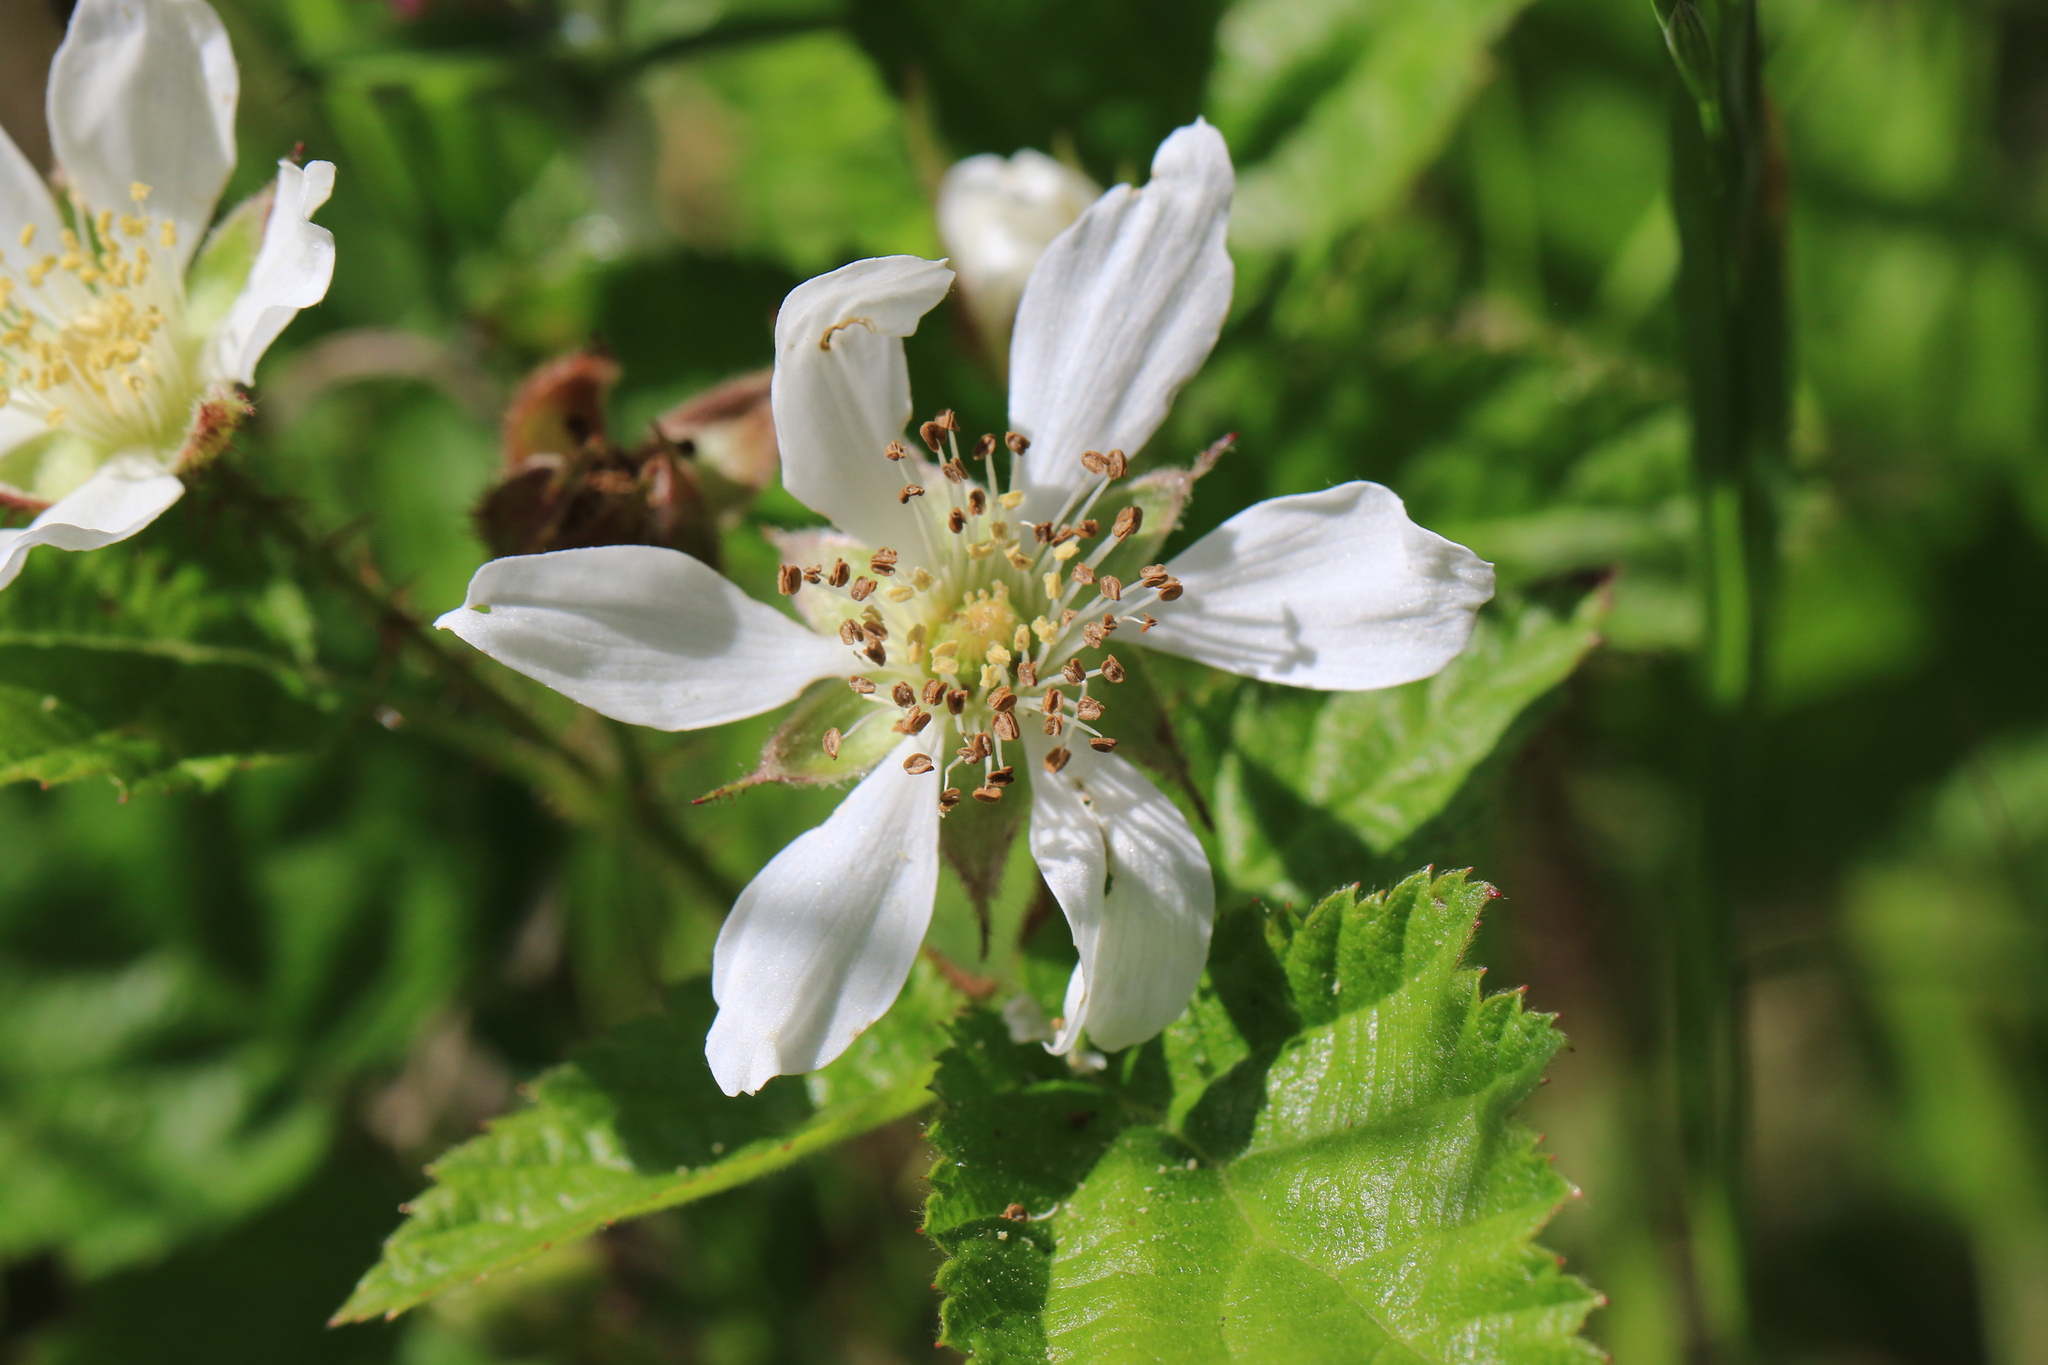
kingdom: Plantae
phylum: Tracheophyta
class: Magnoliopsida
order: Rosales
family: Rosaceae
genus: Rubus
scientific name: Rubus ursinus
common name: Pacific blackberry
